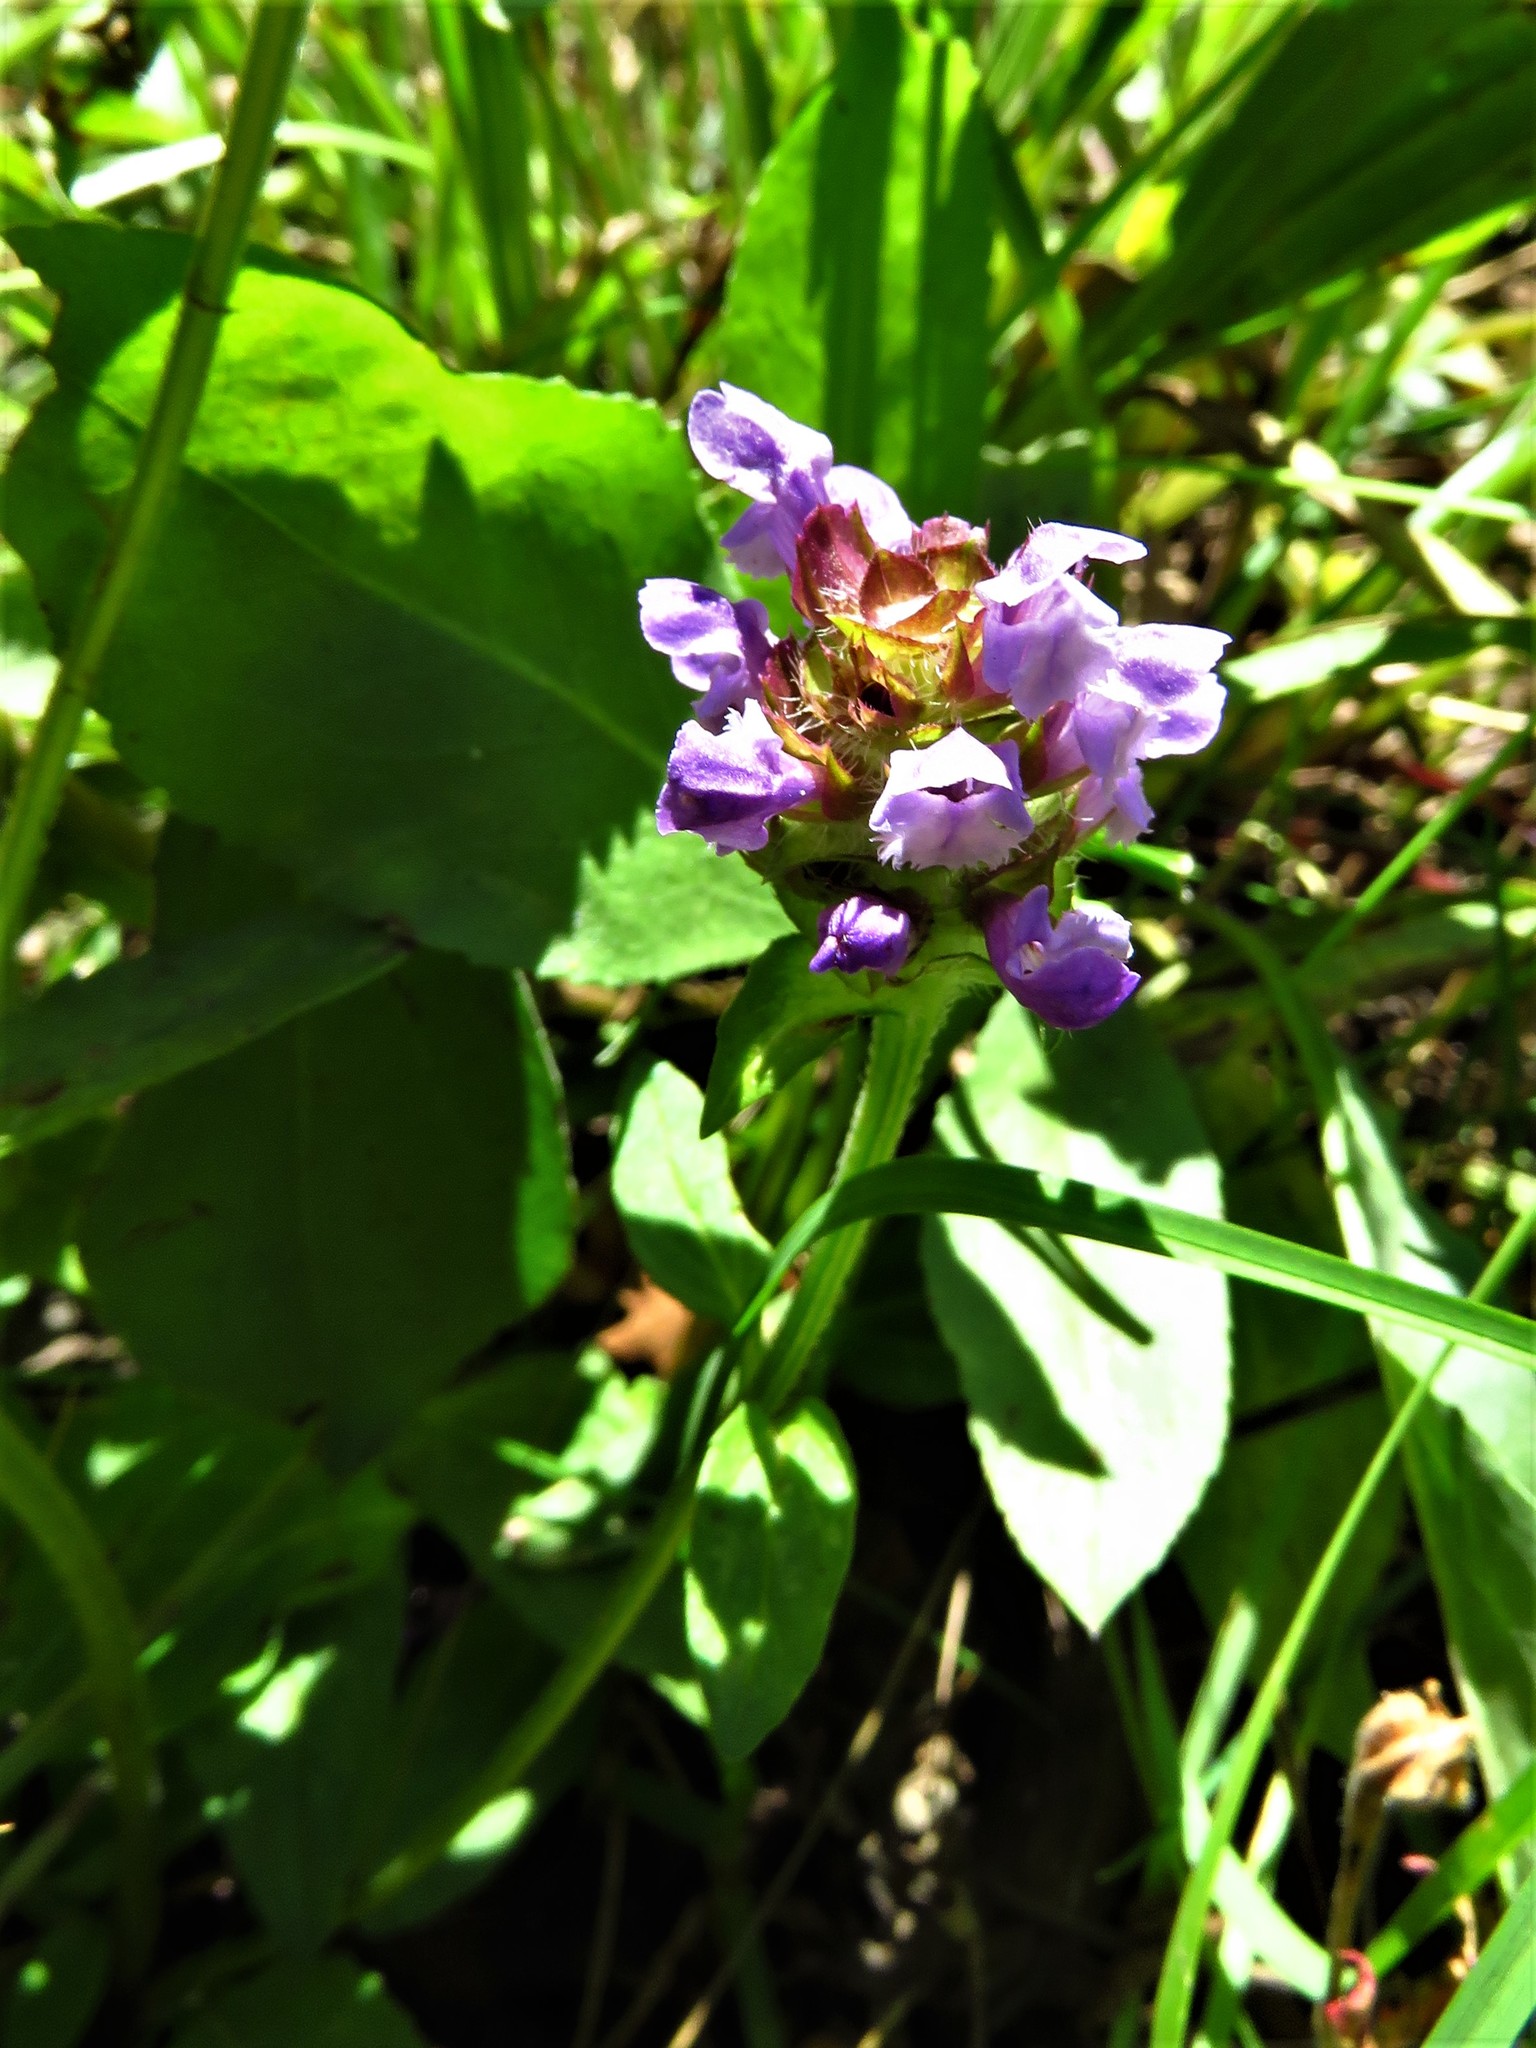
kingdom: Plantae
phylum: Tracheophyta
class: Magnoliopsida
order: Lamiales
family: Lamiaceae
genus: Prunella
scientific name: Prunella vulgaris
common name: Heal-all
